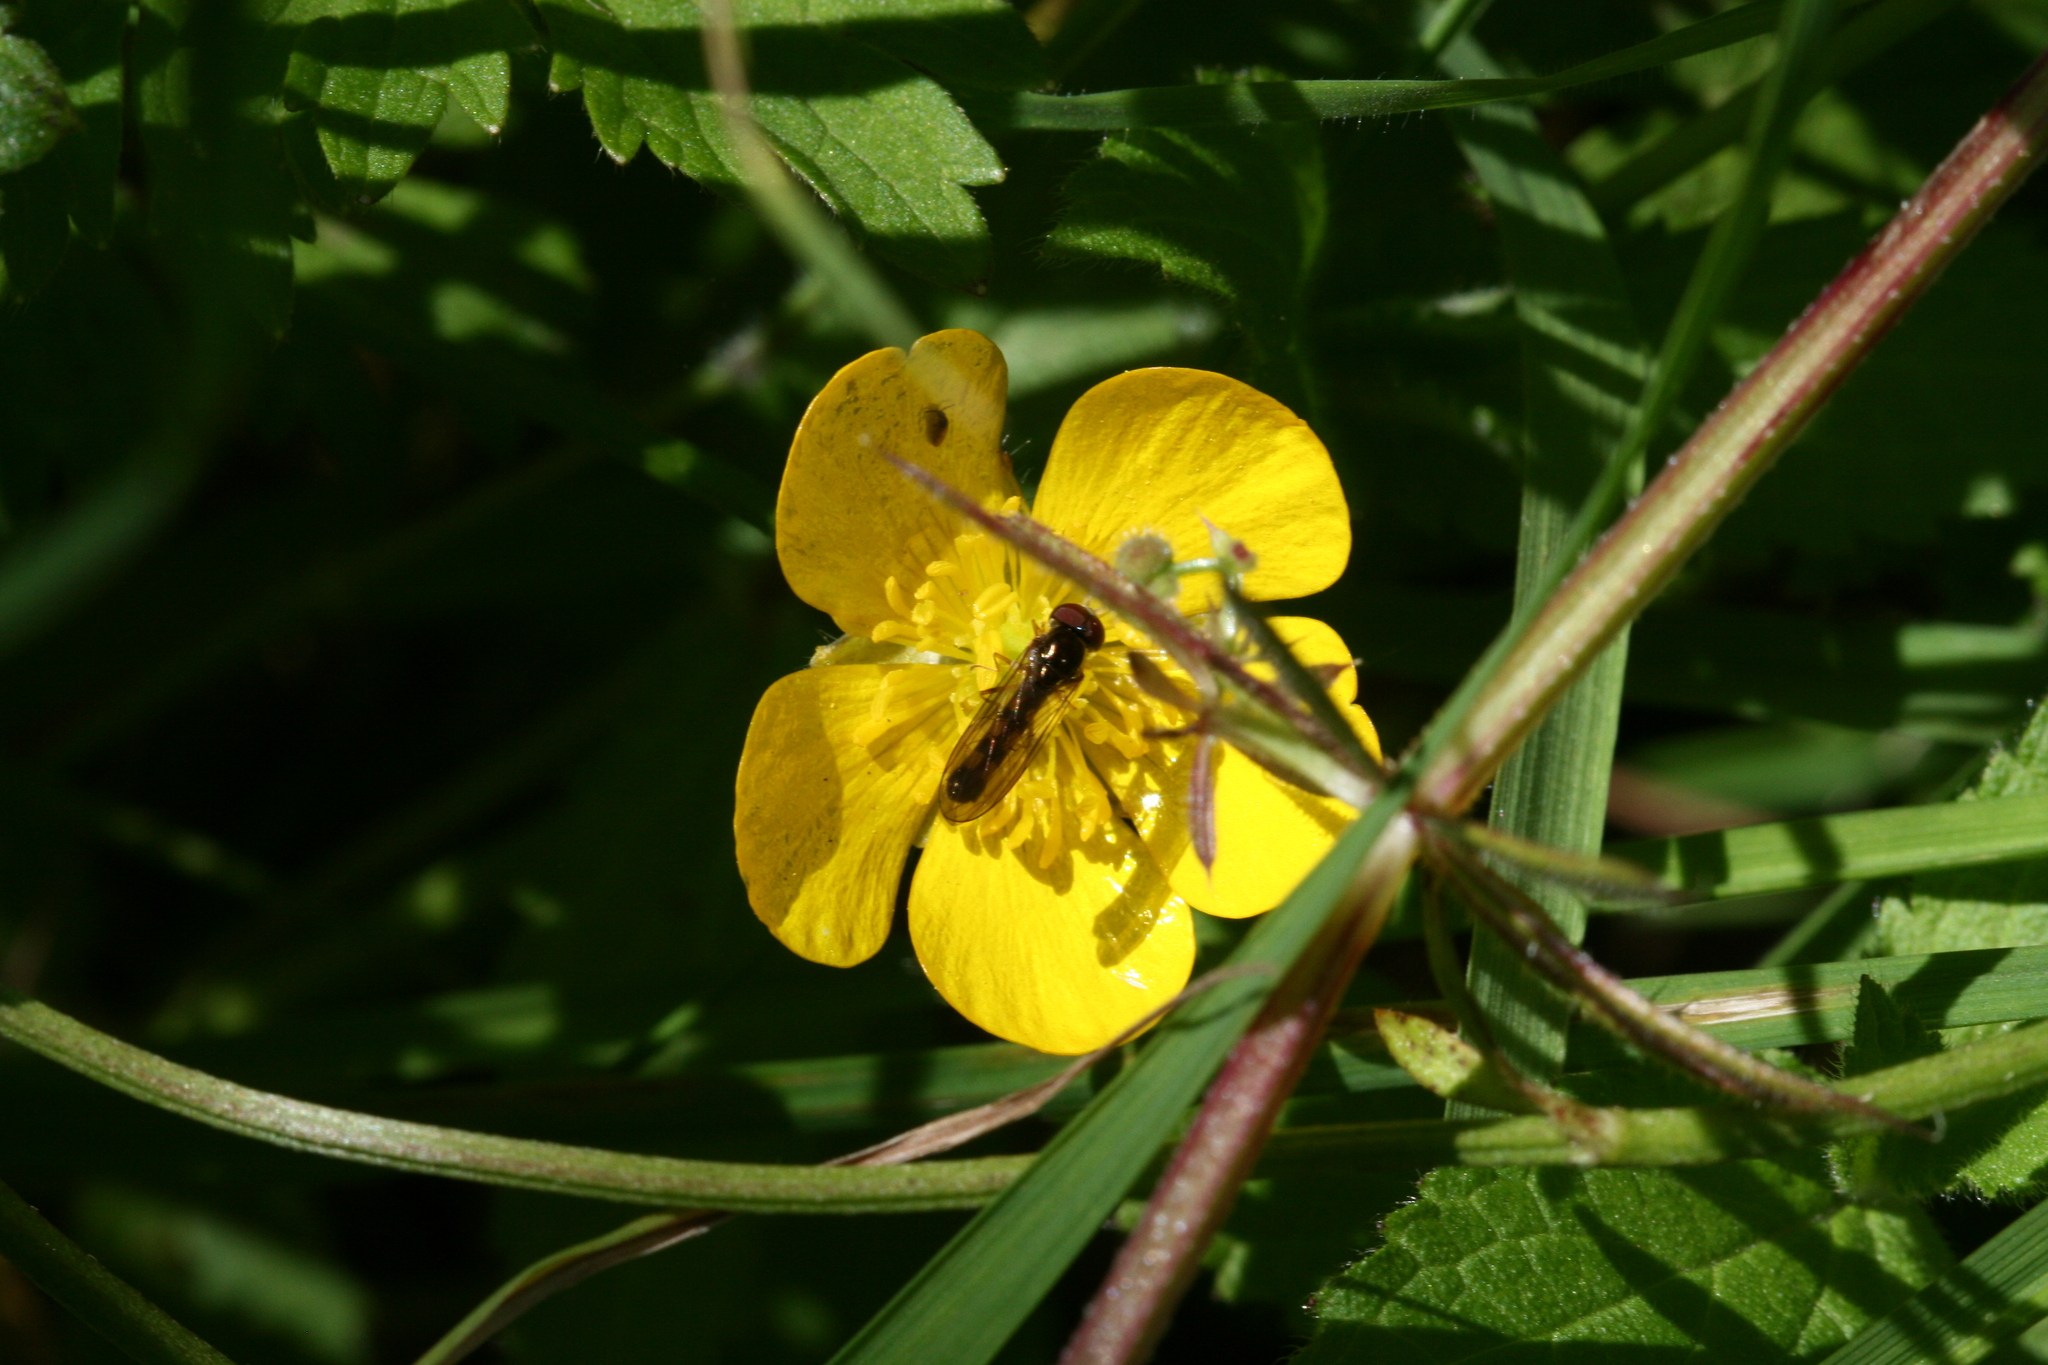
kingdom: Animalia
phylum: Arthropoda
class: Insecta
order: Diptera
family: Syrphidae
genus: Melanostoma
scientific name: Melanostoma scalare
